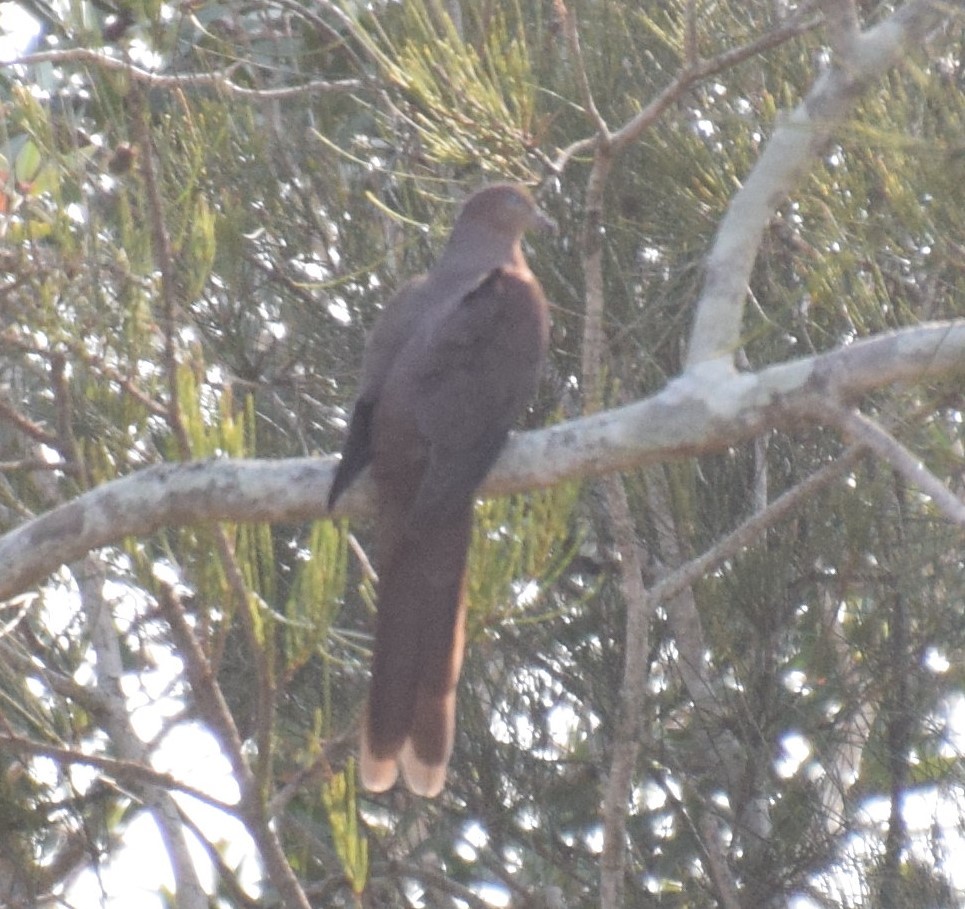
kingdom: Animalia
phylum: Chordata
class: Aves
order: Columbiformes
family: Columbidae
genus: Macropygia
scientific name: Macropygia phasianella
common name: Brown cuckoo-dove
